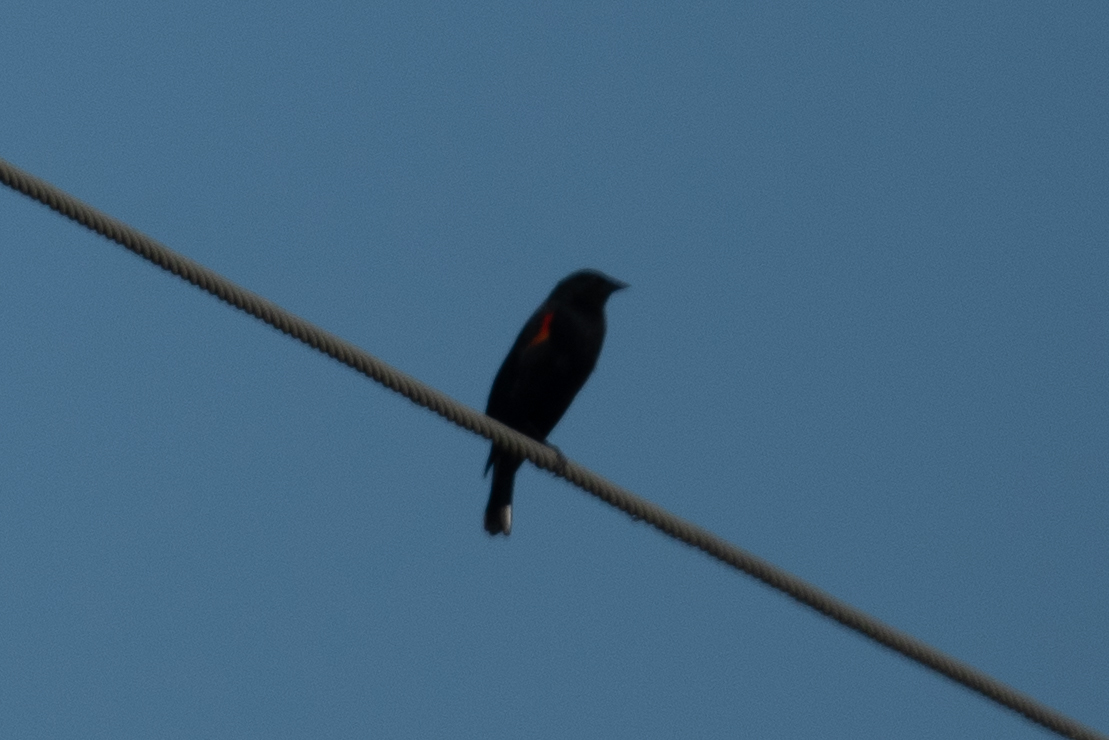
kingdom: Animalia
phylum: Chordata
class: Aves
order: Passeriformes
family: Icteridae
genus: Agelaius
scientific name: Agelaius phoeniceus
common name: Red-winged blackbird
